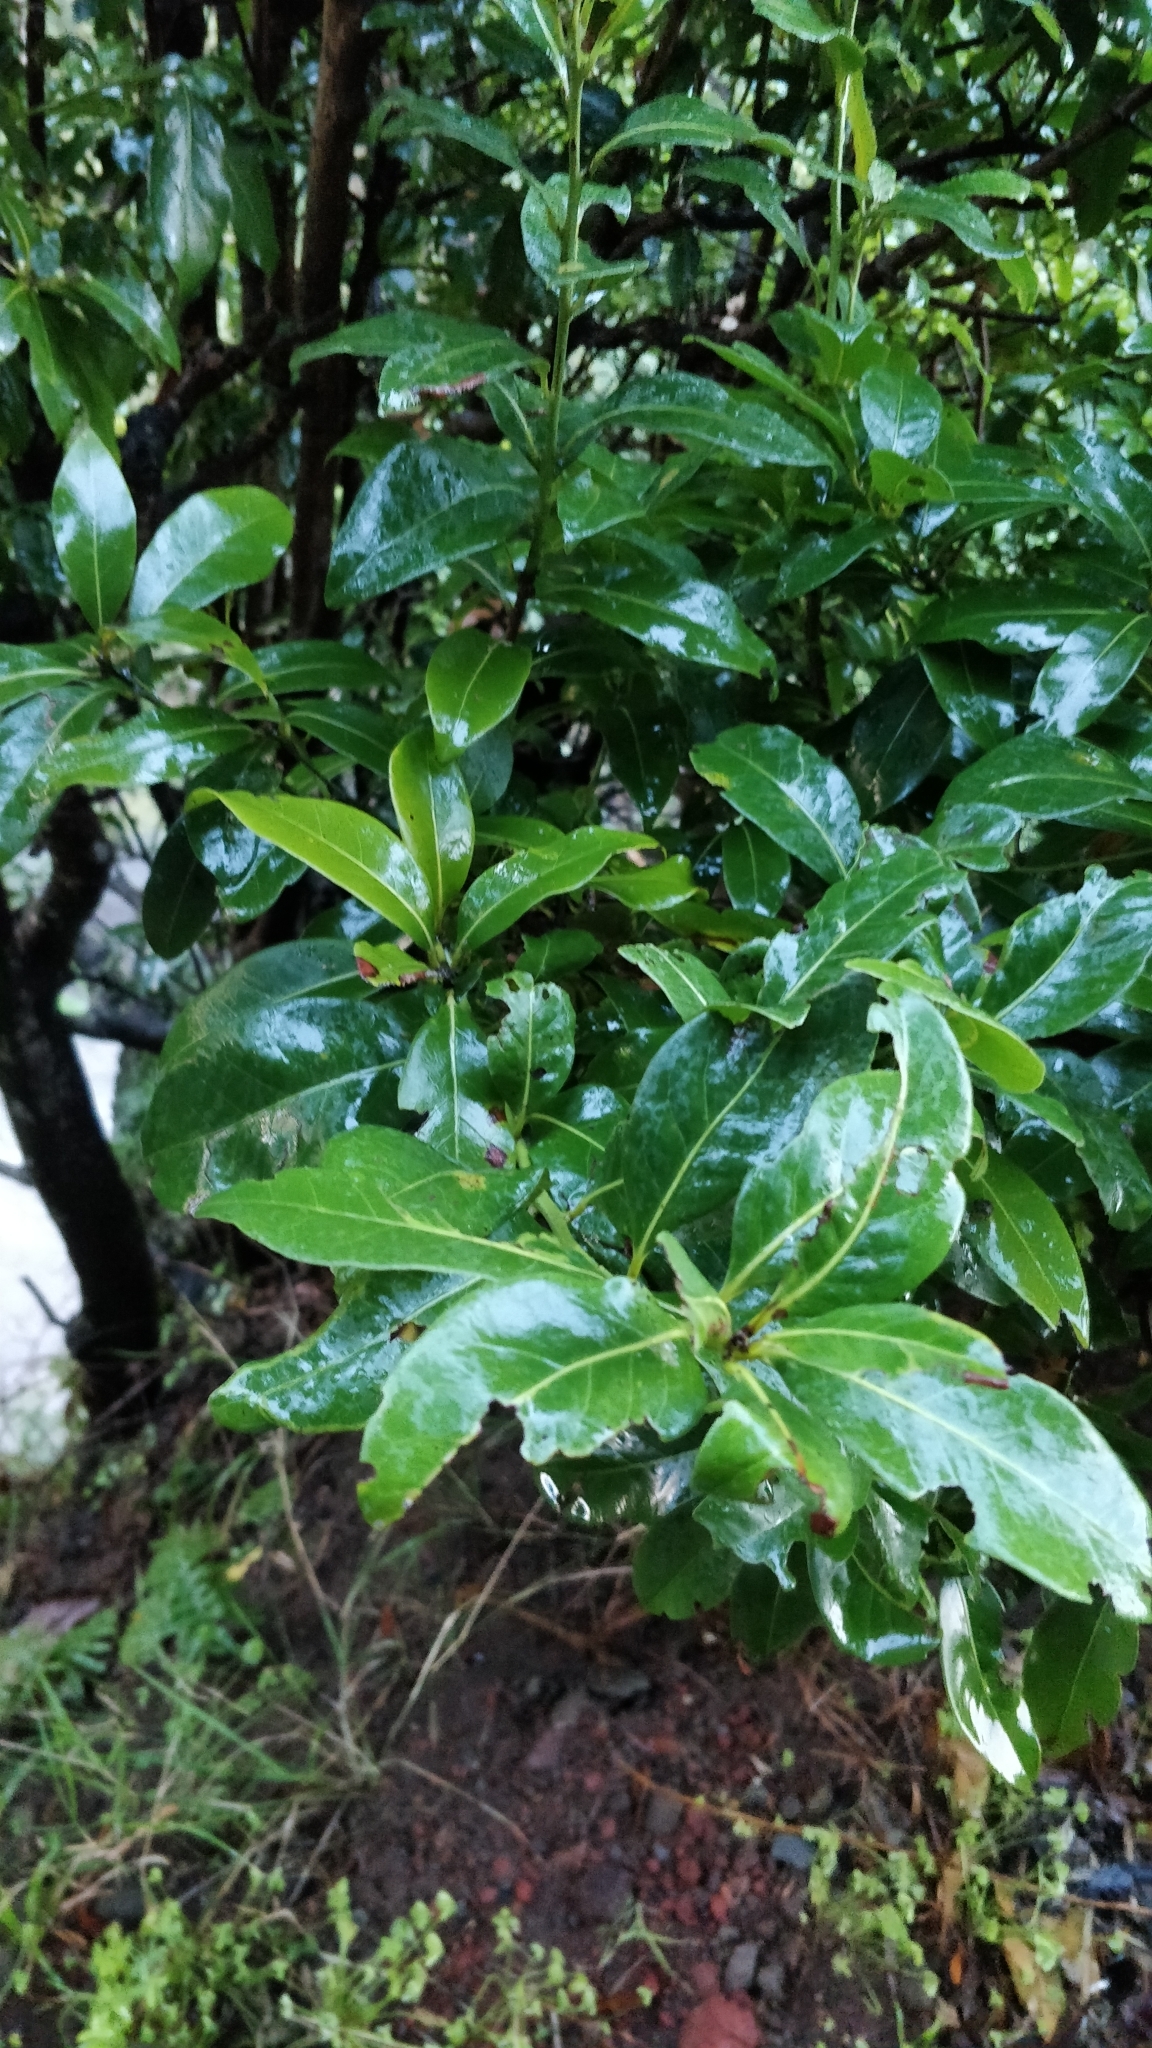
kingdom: Plantae
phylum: Tracheophyta
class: Magnoliopsida
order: Laurales
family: Lauraceae
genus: Apollonias
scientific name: Apollonias barbujana
